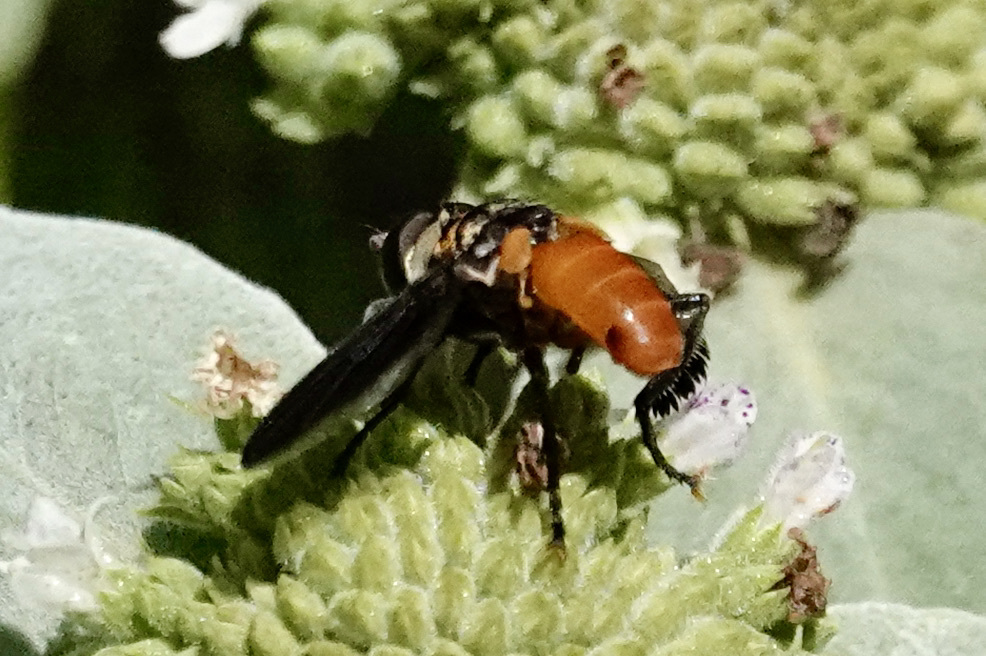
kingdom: Animalia
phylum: Arthropoda
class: Insecta
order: Diptera
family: Tachinidae
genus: Trichopoda
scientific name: Trichopoda pennipes
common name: Tachinid fly
